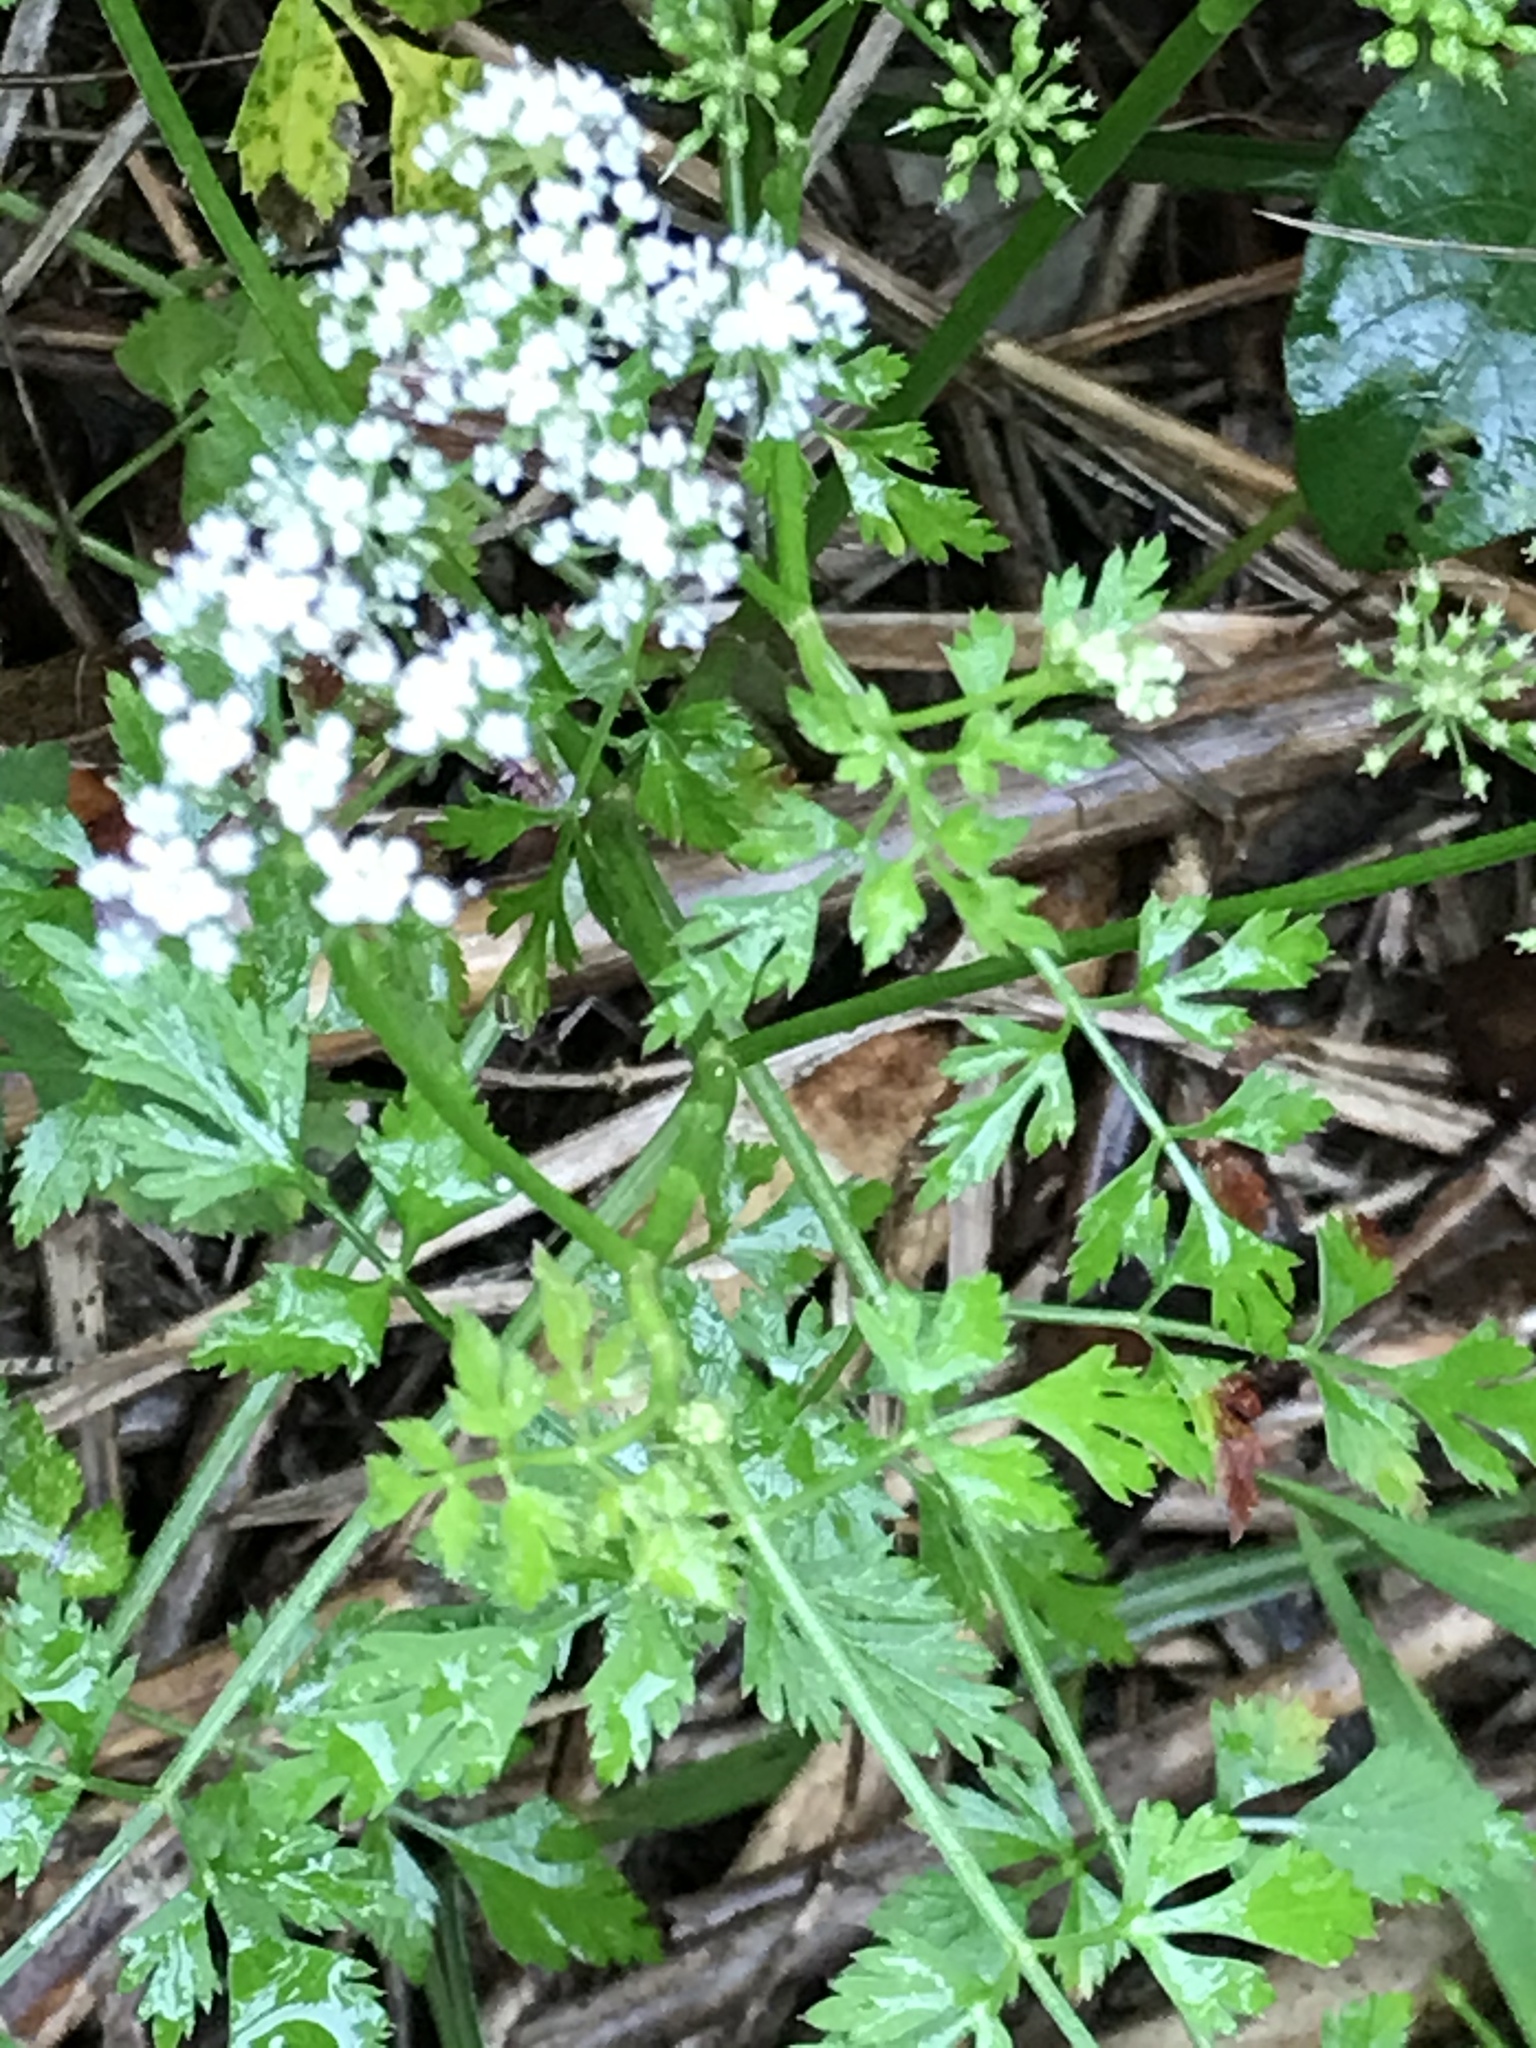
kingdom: Plantae
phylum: Tracheophyta
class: Magnoliopsida
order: Apiales
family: Apiaceae
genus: Oenanthe
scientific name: Oenanthe javanica
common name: Java water-dropwort
